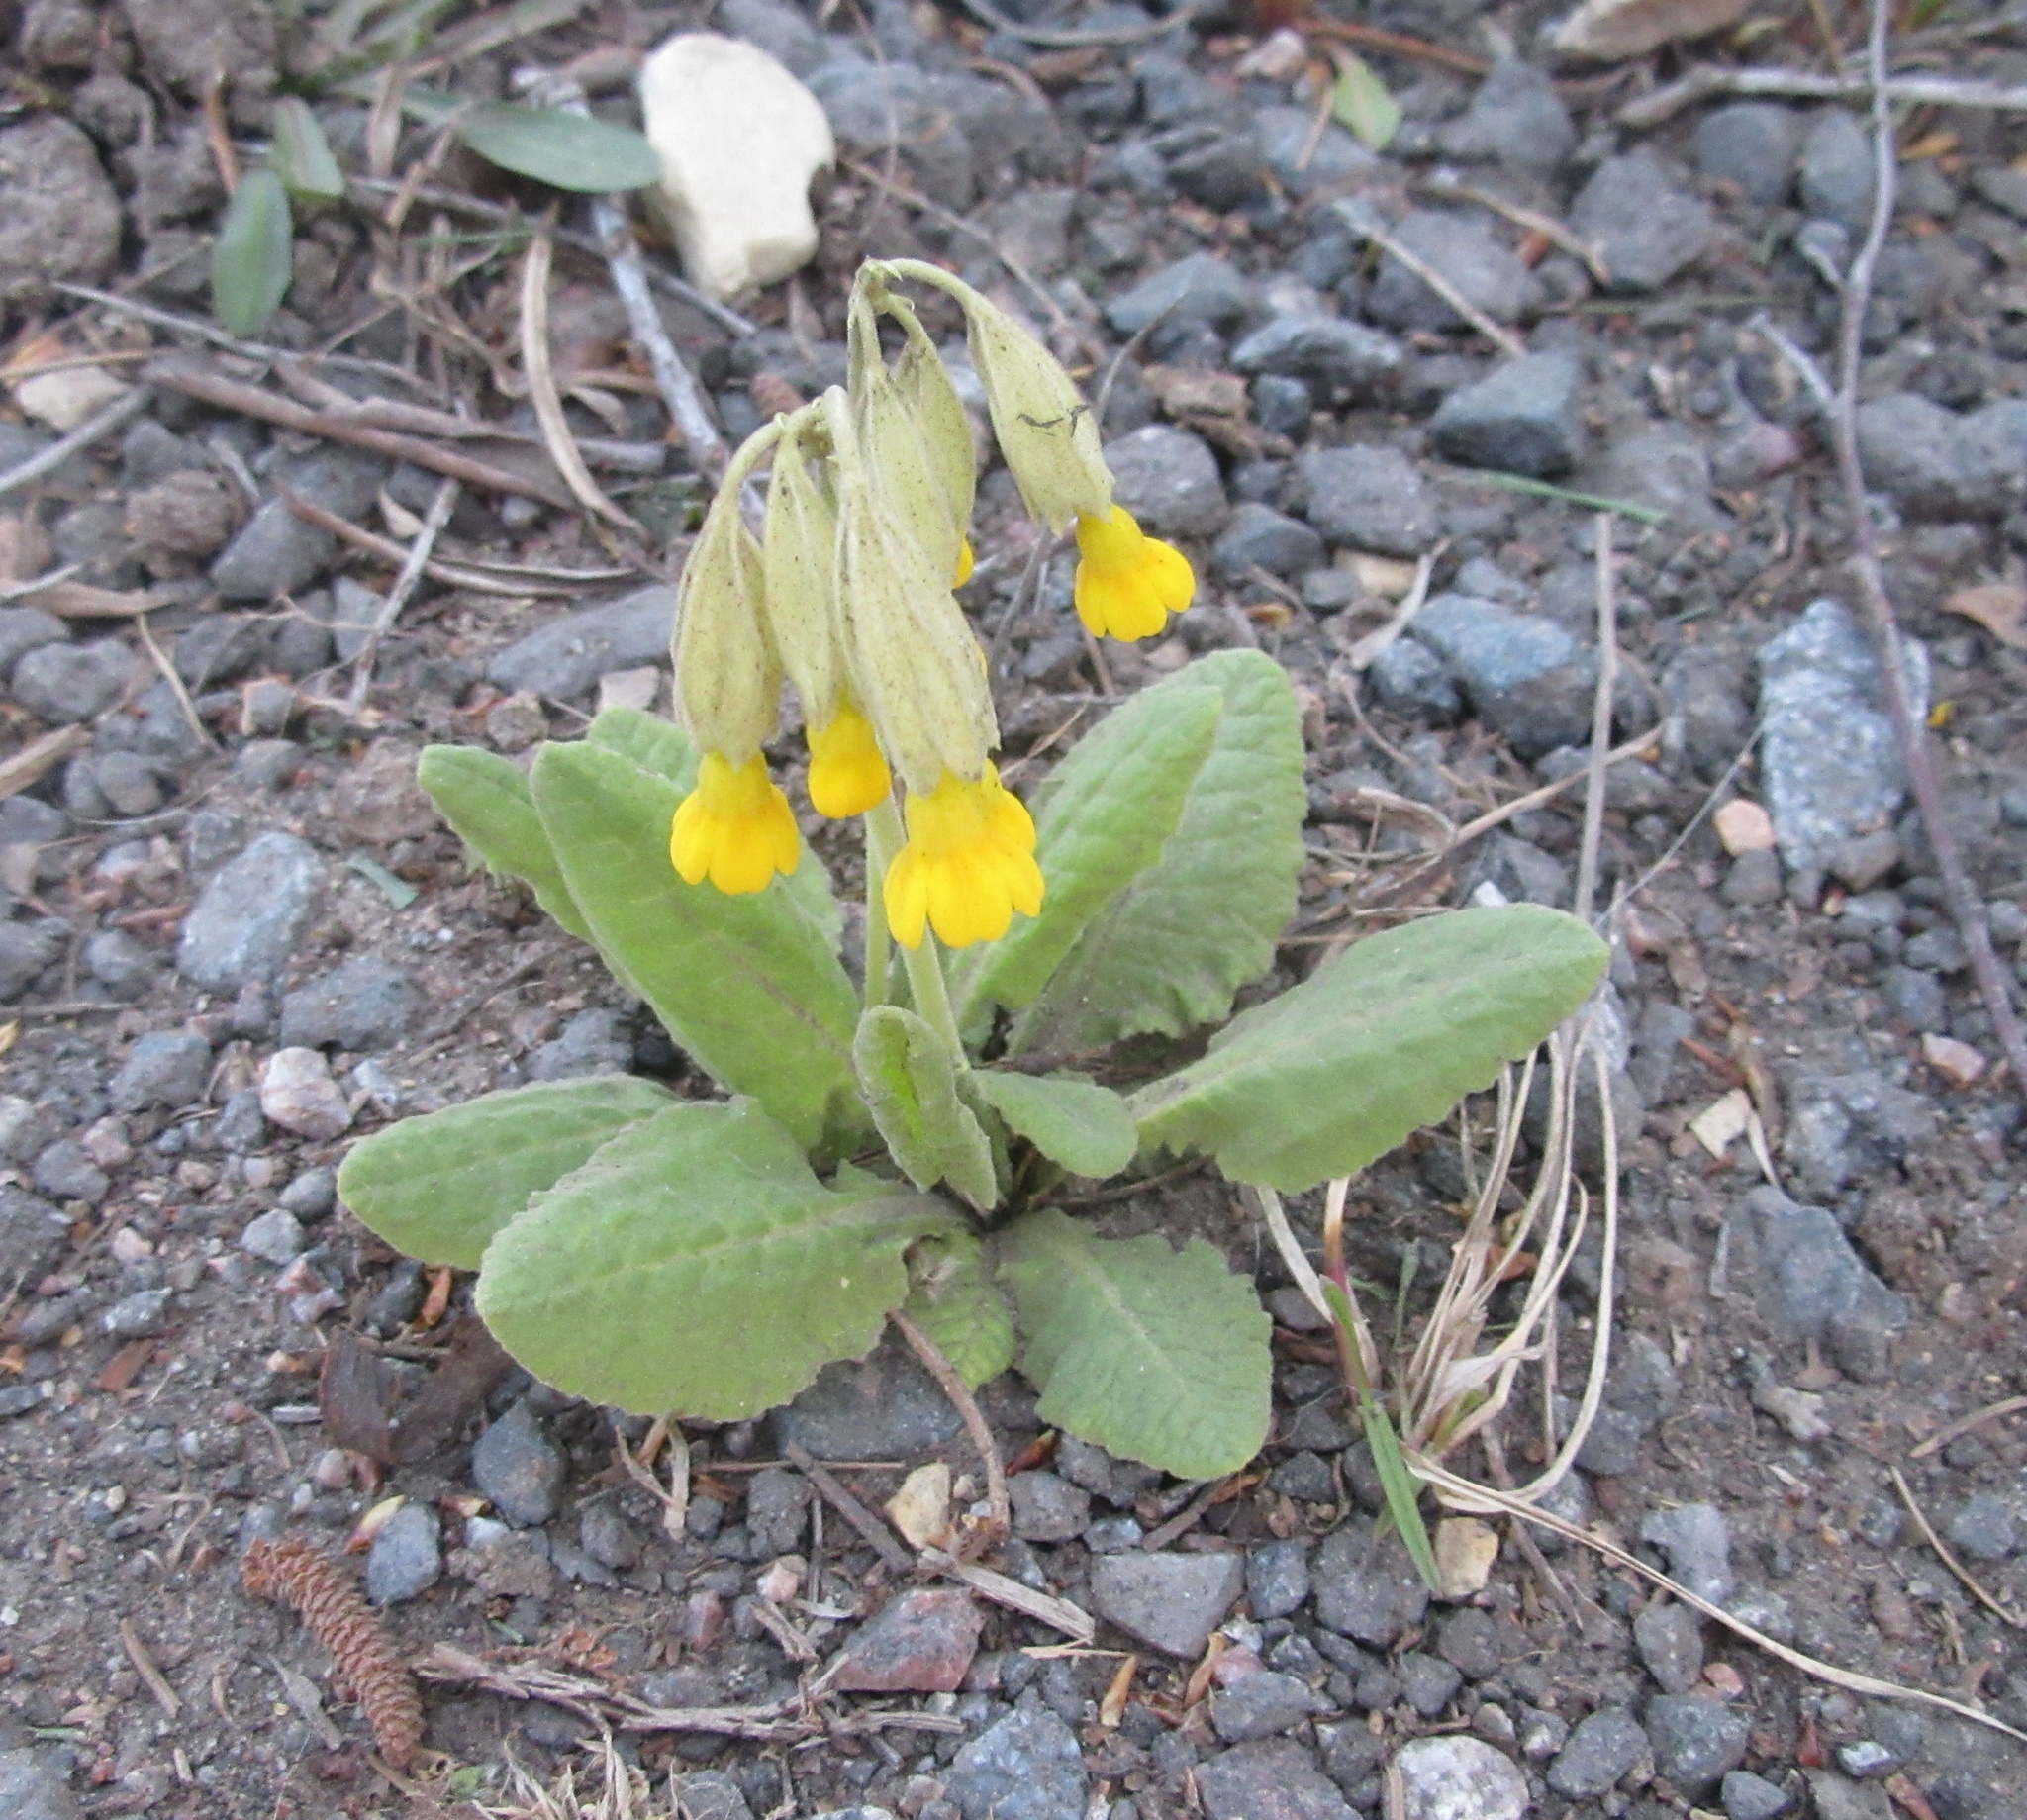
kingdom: Plantae
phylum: Tracheophyta
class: Magnoliopsida
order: Ericales
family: Primulaceae
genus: Primula
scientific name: Primula veris
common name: Cowslip
